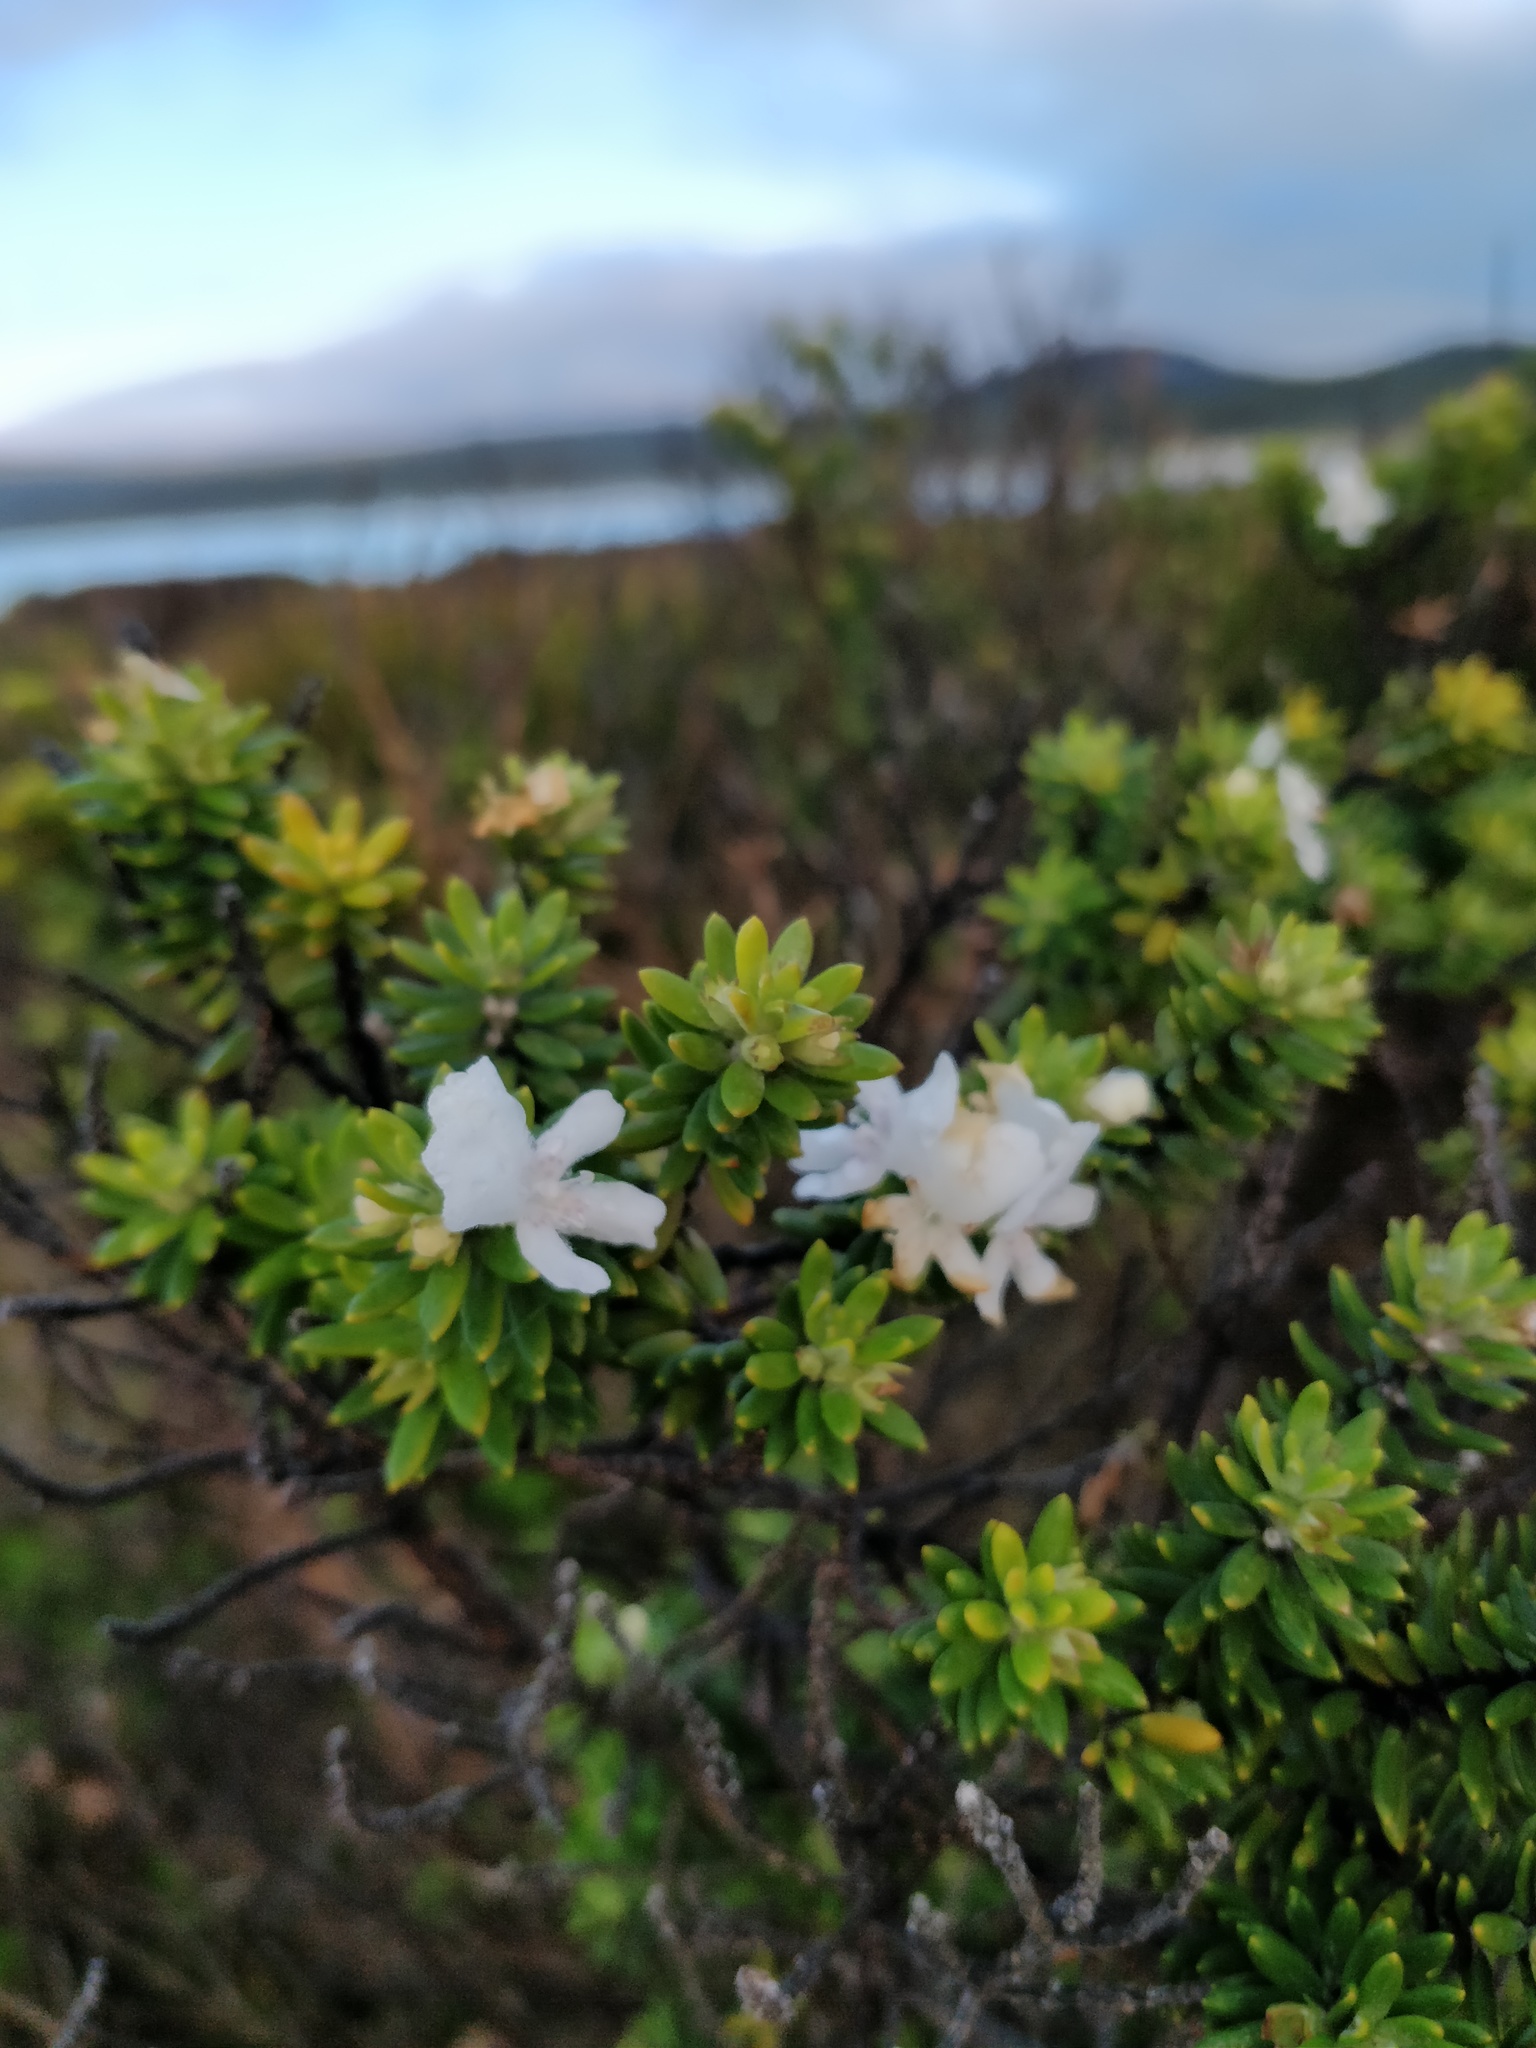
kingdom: Plantae
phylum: Tracheophyta
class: Magnoliopsida
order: Lamiales
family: Lamiaceae
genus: Westringia
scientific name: Westringia fruticosa
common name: Coastal-rosemary
